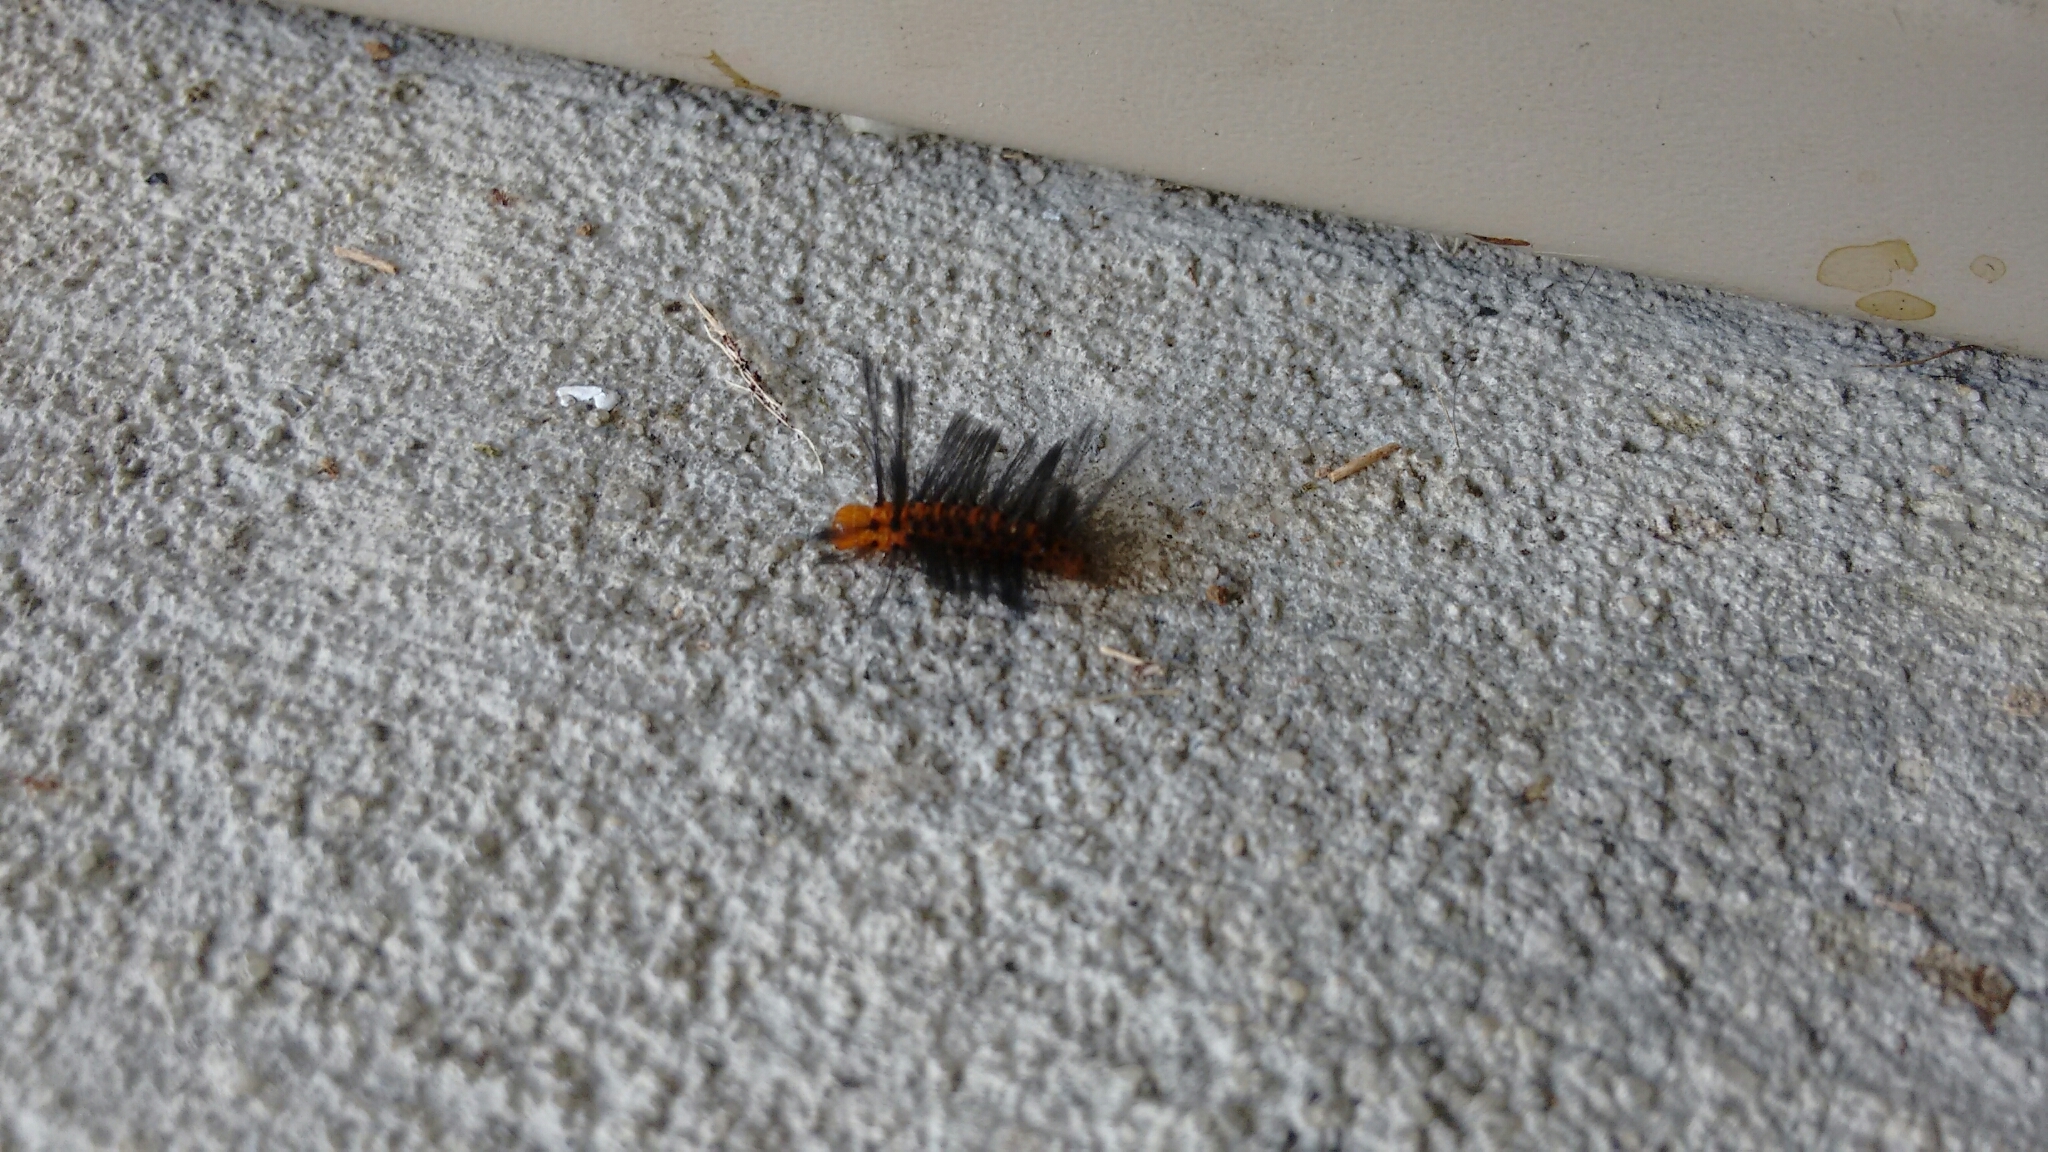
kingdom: Animalia
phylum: Arthropoda
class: Insecta
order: Lepidoptera
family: Erebidae
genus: Syntomeida
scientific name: Syntomeida epilais
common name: Polka-dot wasp moth
